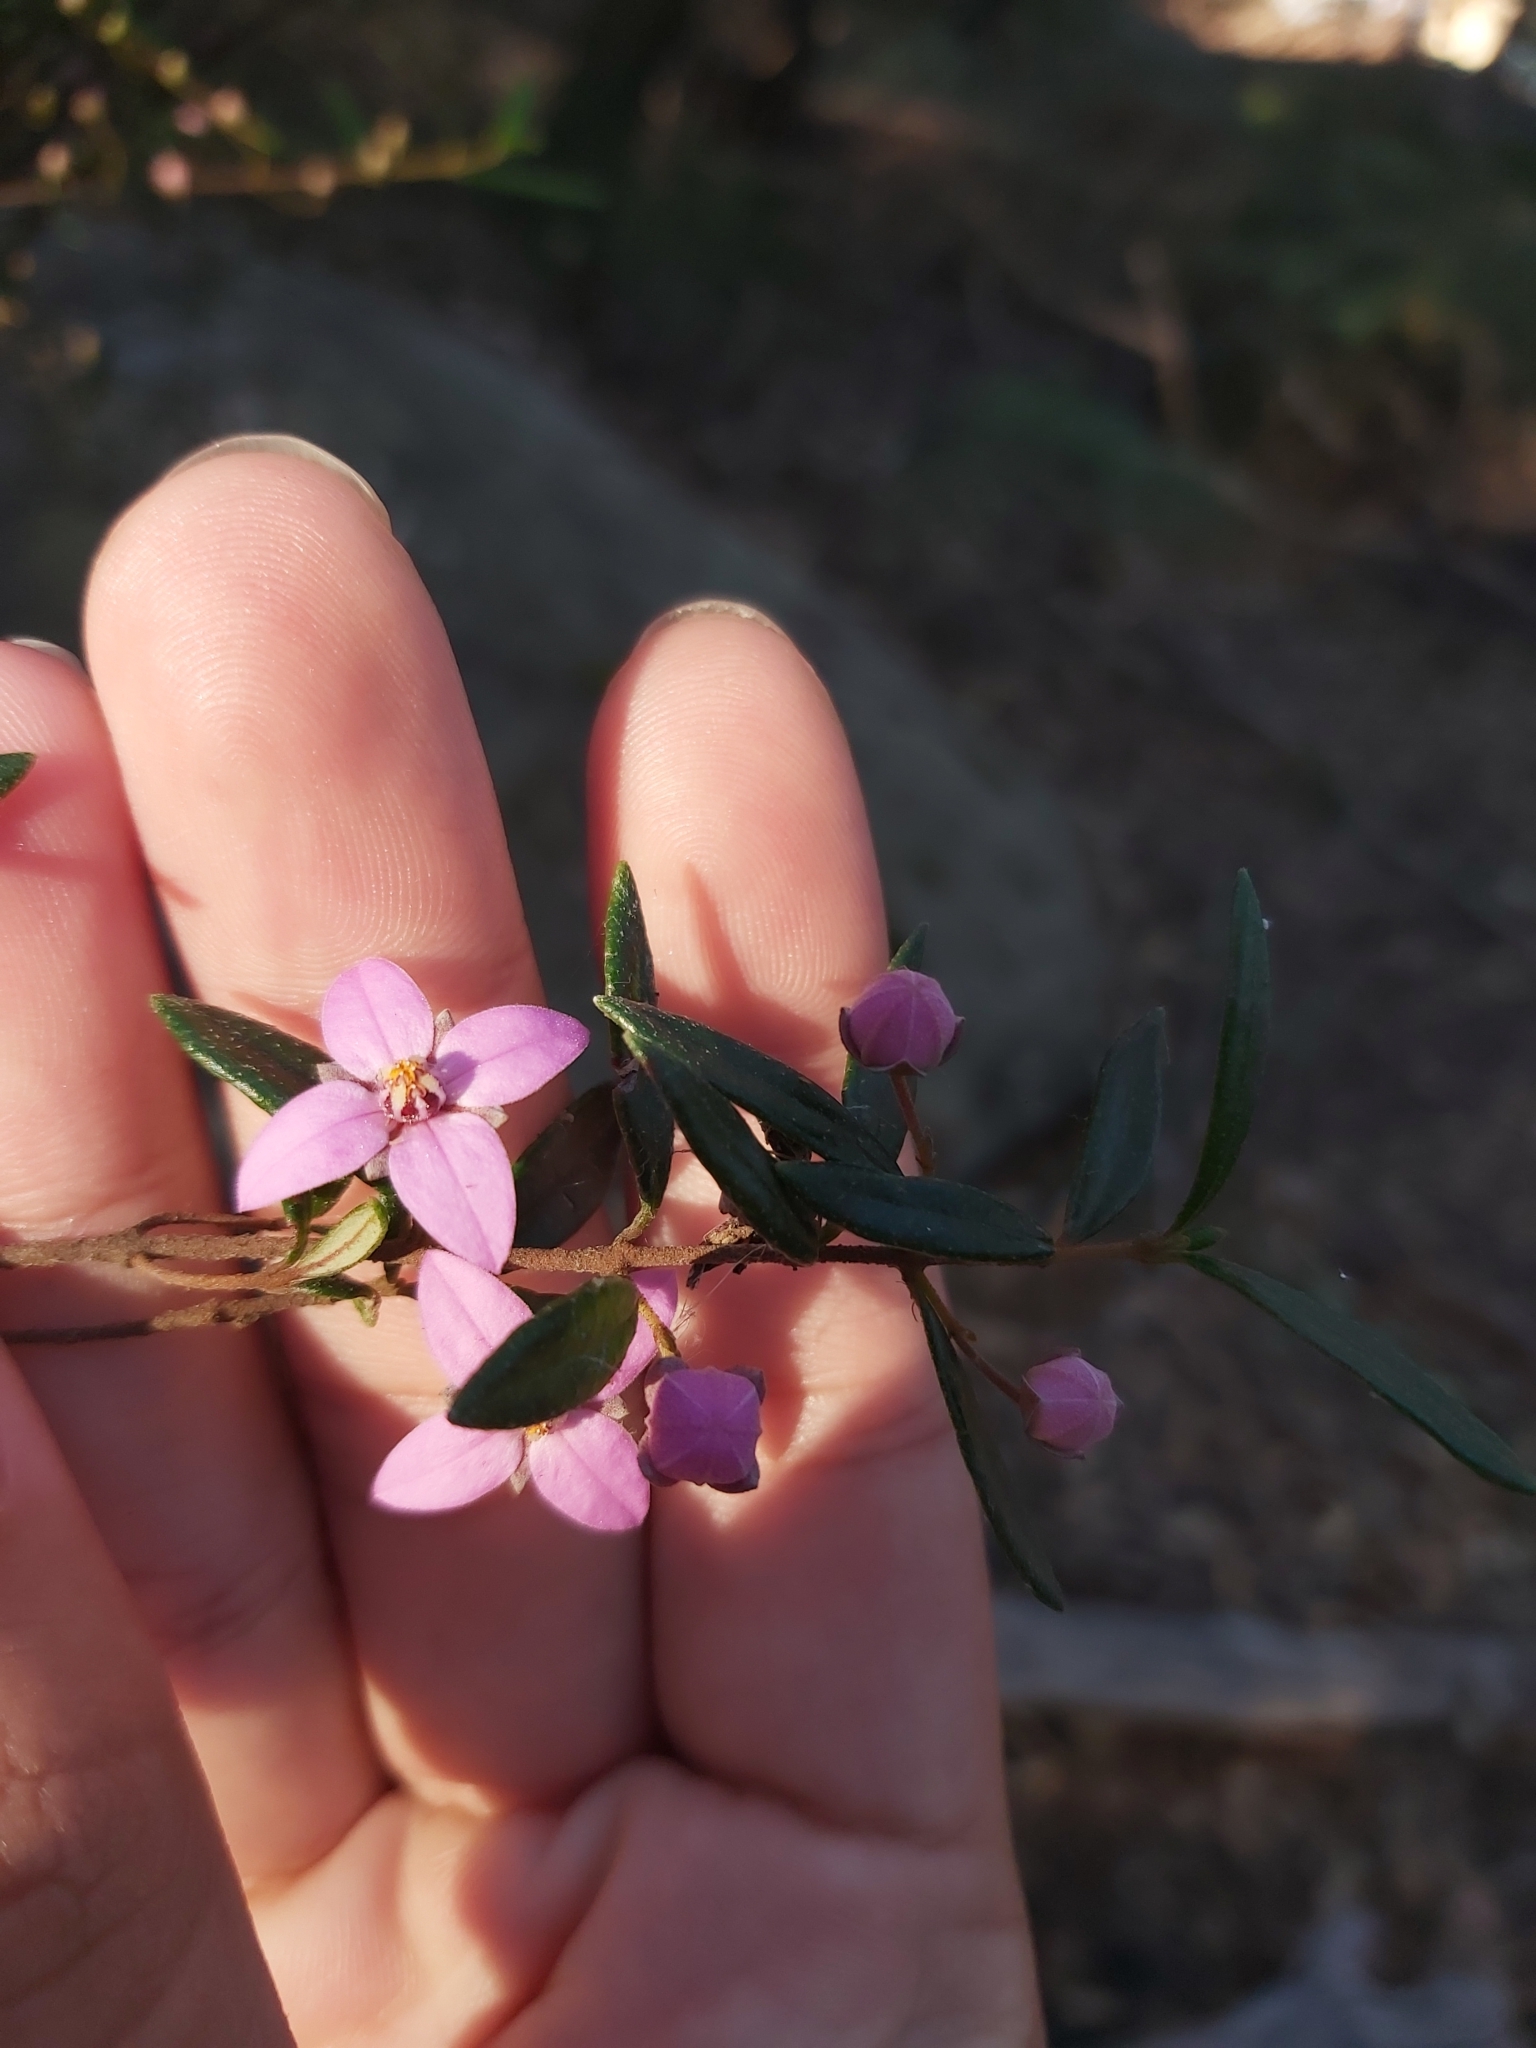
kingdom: Plantae
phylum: Tracheophyta
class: Magnoliopsida
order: Sapindales
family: Rutaceae
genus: Boronia
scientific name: Boronia ledifolia
